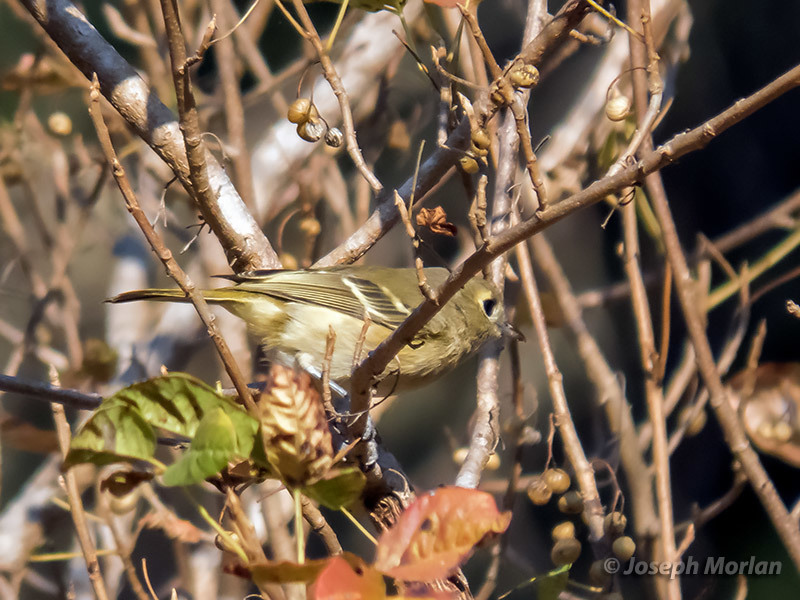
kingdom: Animalia
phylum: Chordata
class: Aves
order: Passeriformes
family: Vireonidae
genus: Vireo
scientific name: Vireo huttoni
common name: Hutton's vireo
